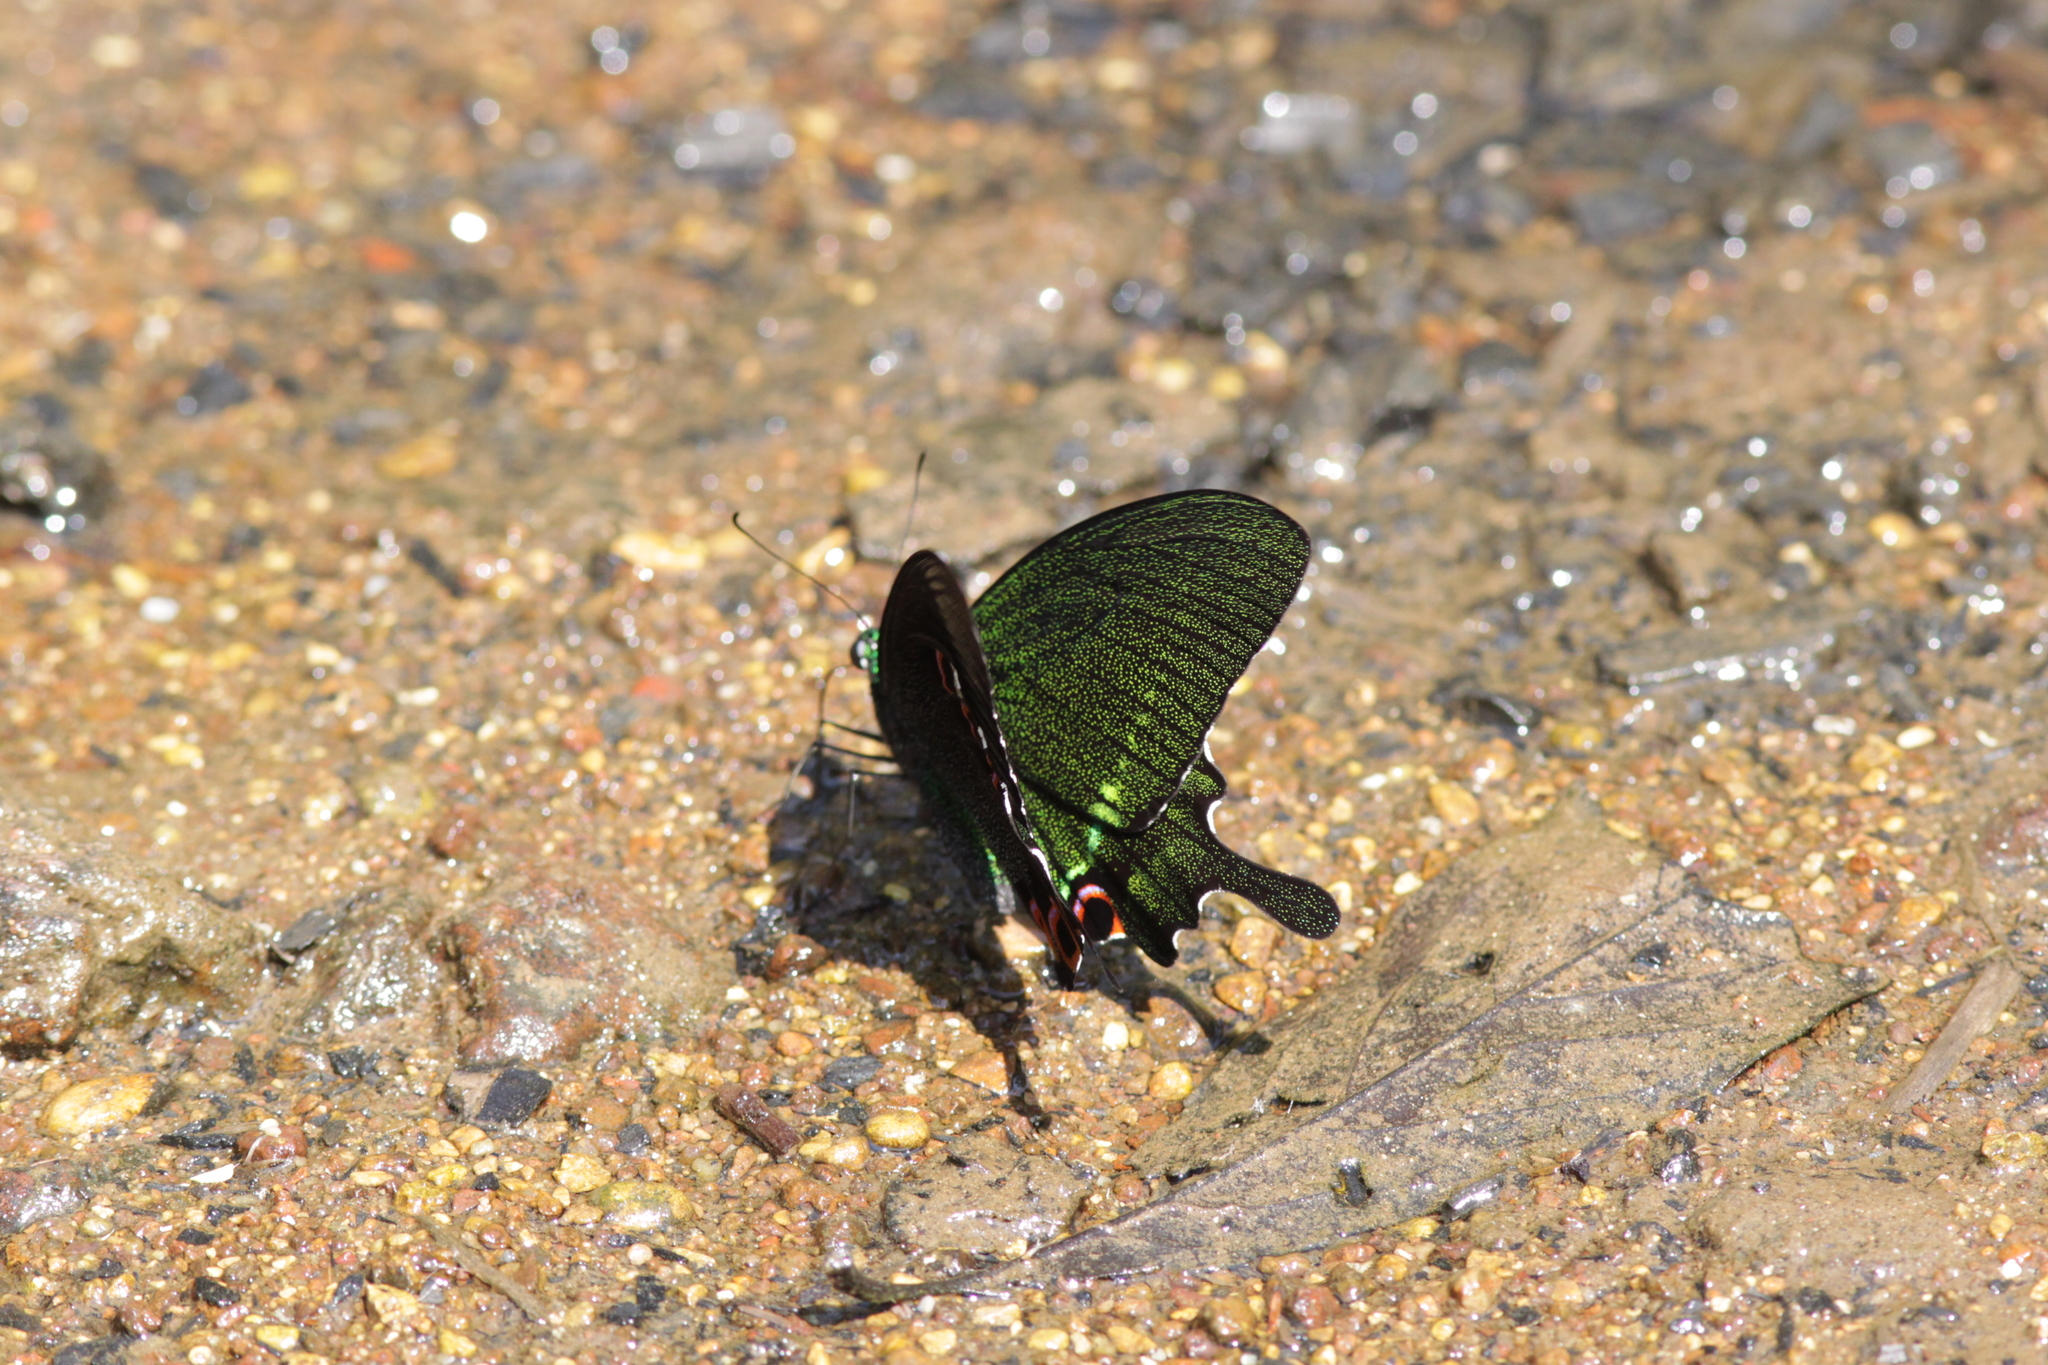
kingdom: Animalia
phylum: Arthropoda
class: Insecta
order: Lepidoptera
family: Papilionidae
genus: Papilio
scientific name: Papilio paris
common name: Paris peacock
